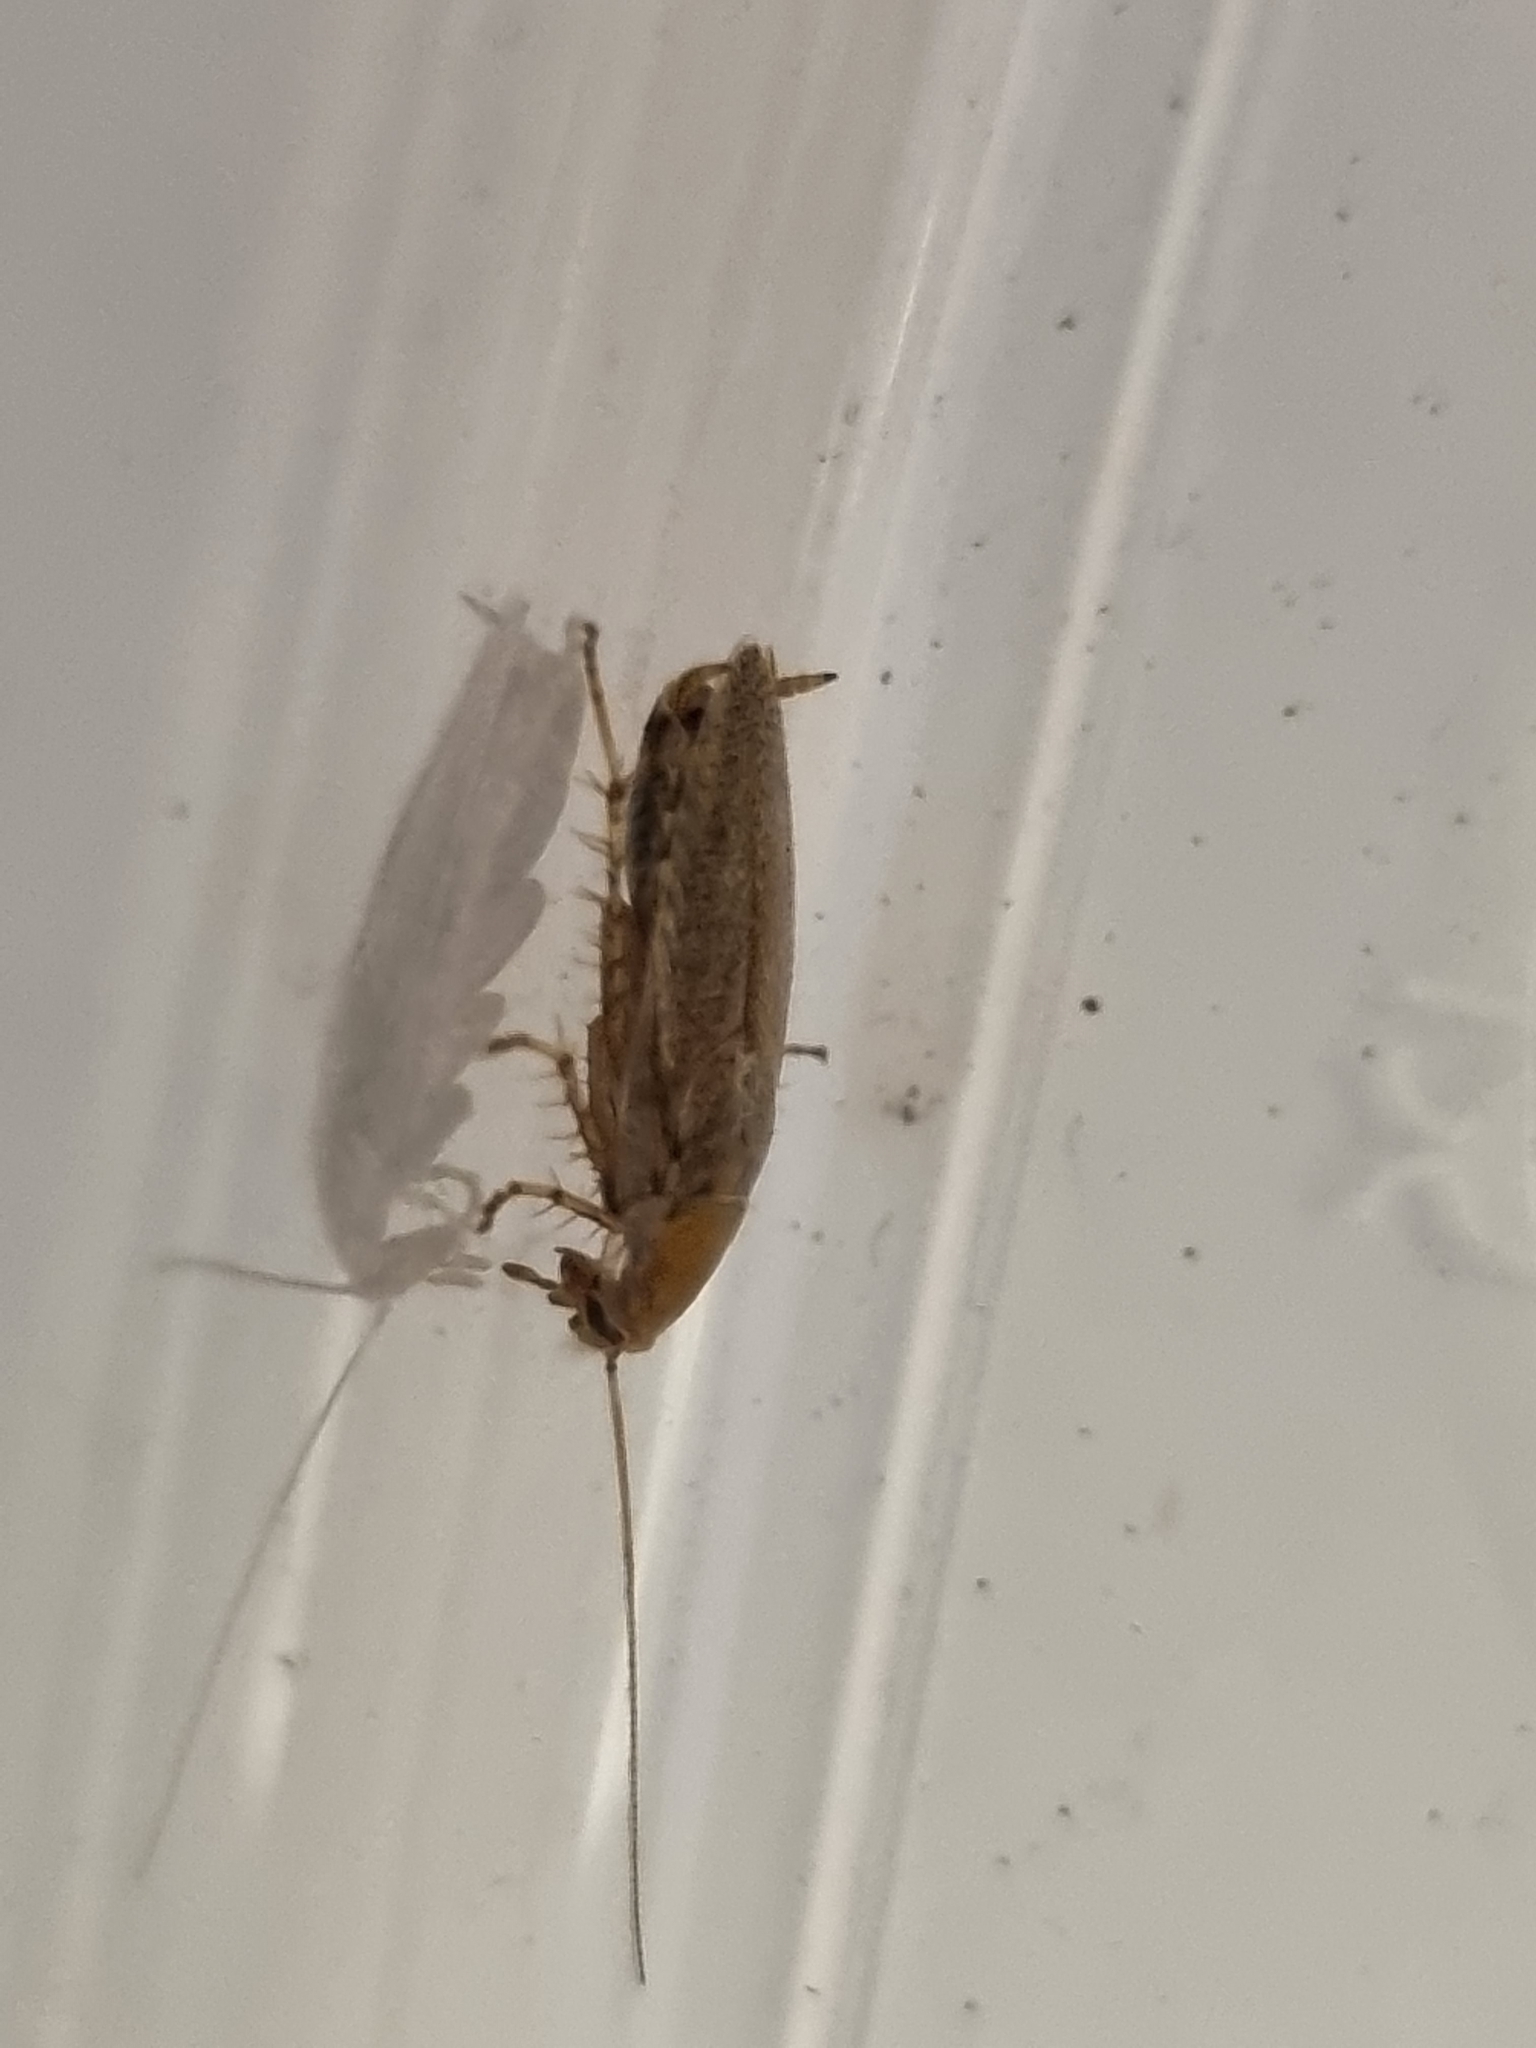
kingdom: Animalia
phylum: Arthropoda
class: Insecta
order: Blattodea
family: Ectobiidae
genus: Ectobius
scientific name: Ectobius vittiventris
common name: Garden cockroach
